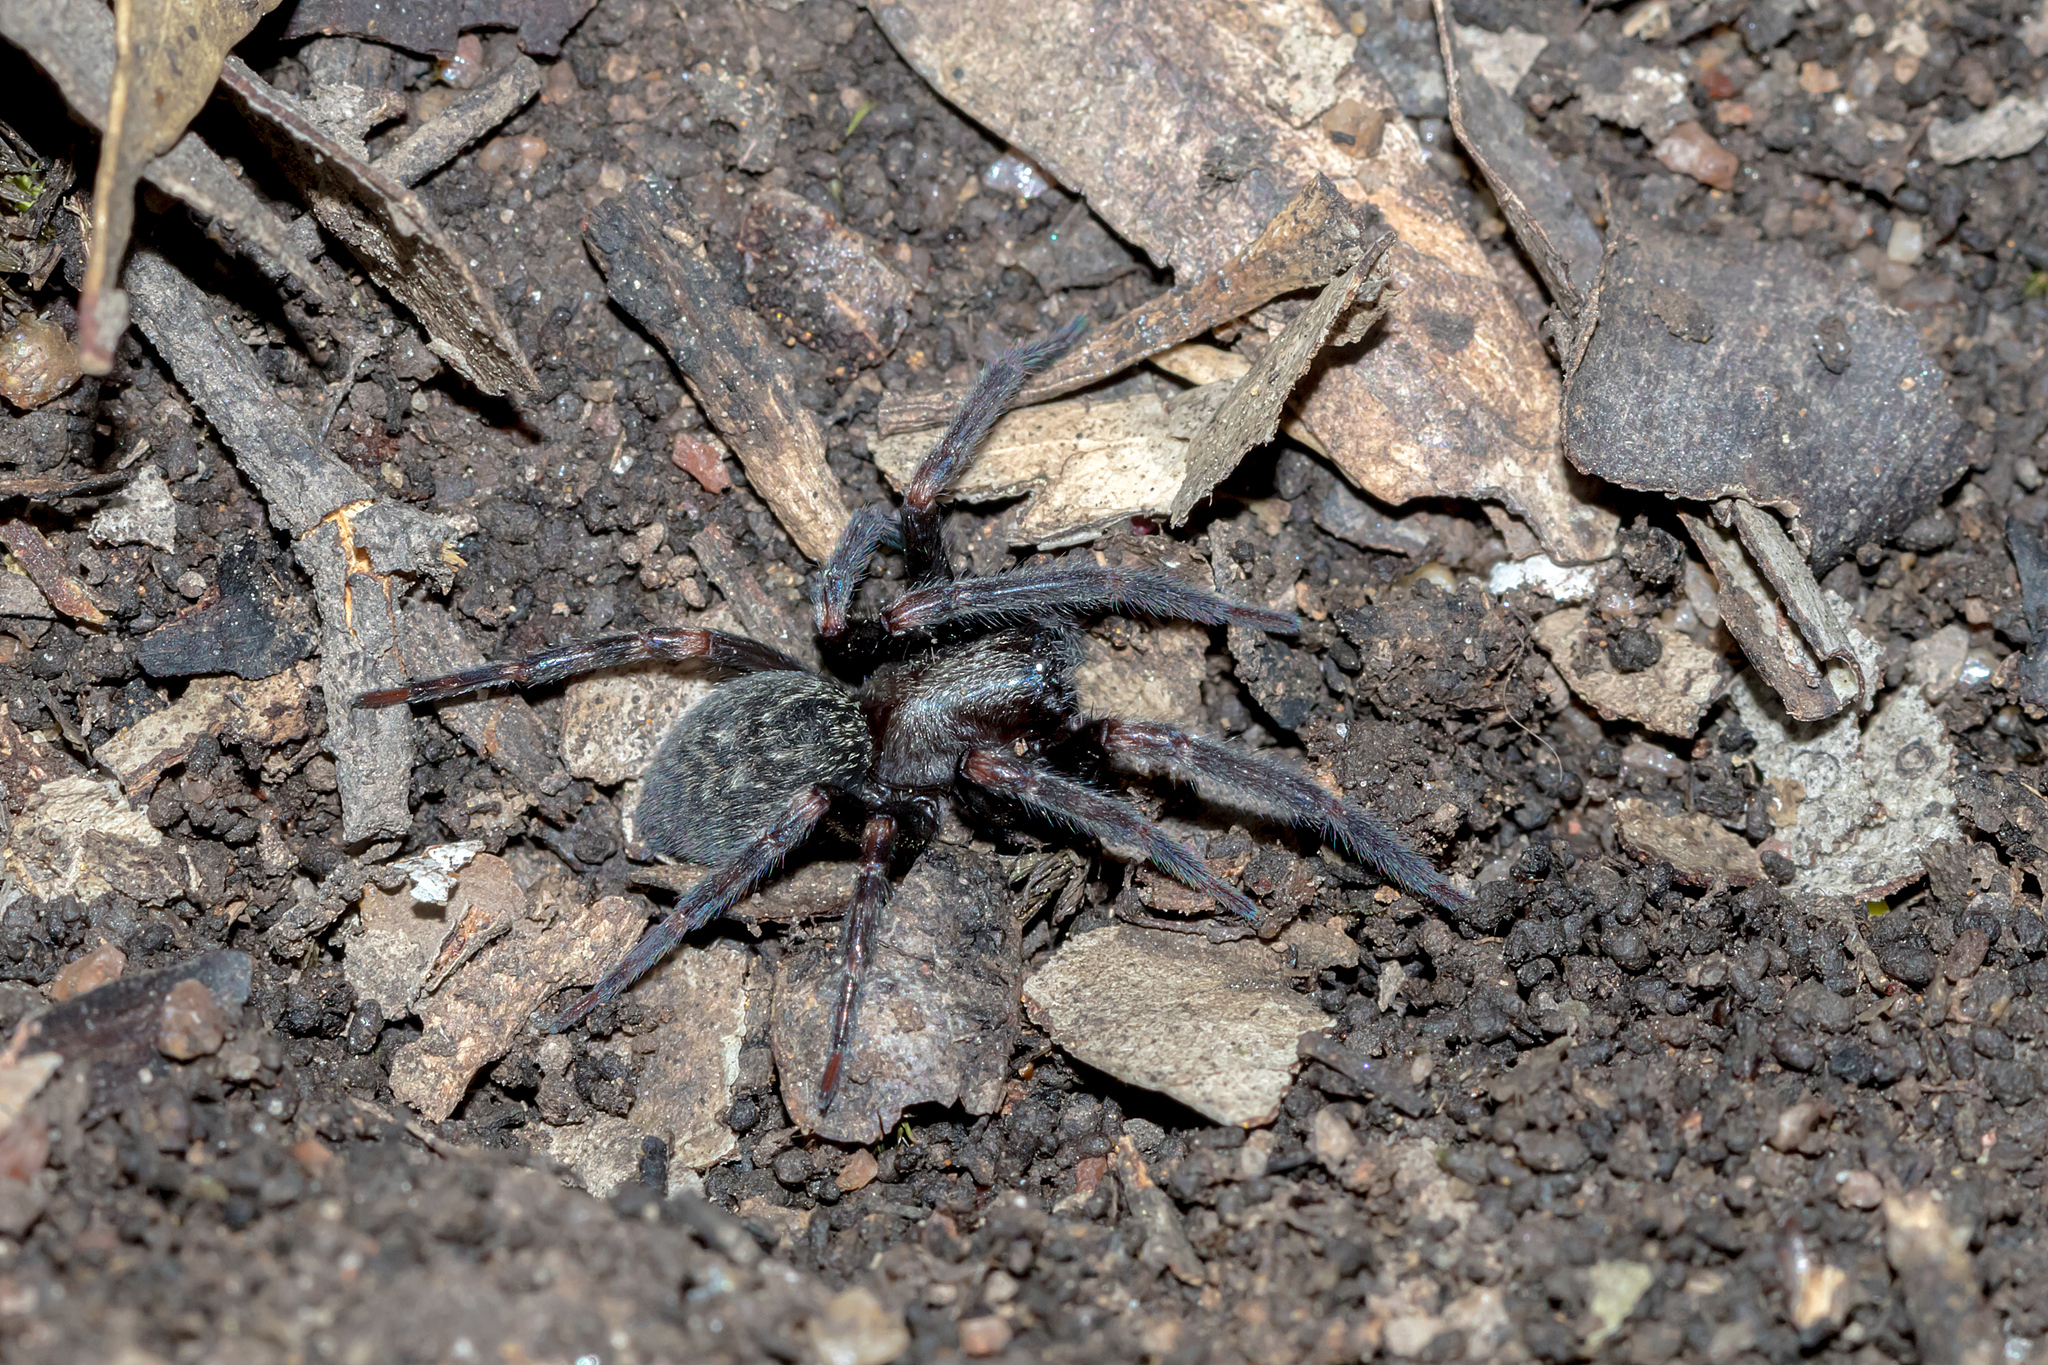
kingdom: Animalia
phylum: Arthropoda
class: Arachnida
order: Araneae
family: Desidae
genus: Badumna
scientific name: Badumna insignis
